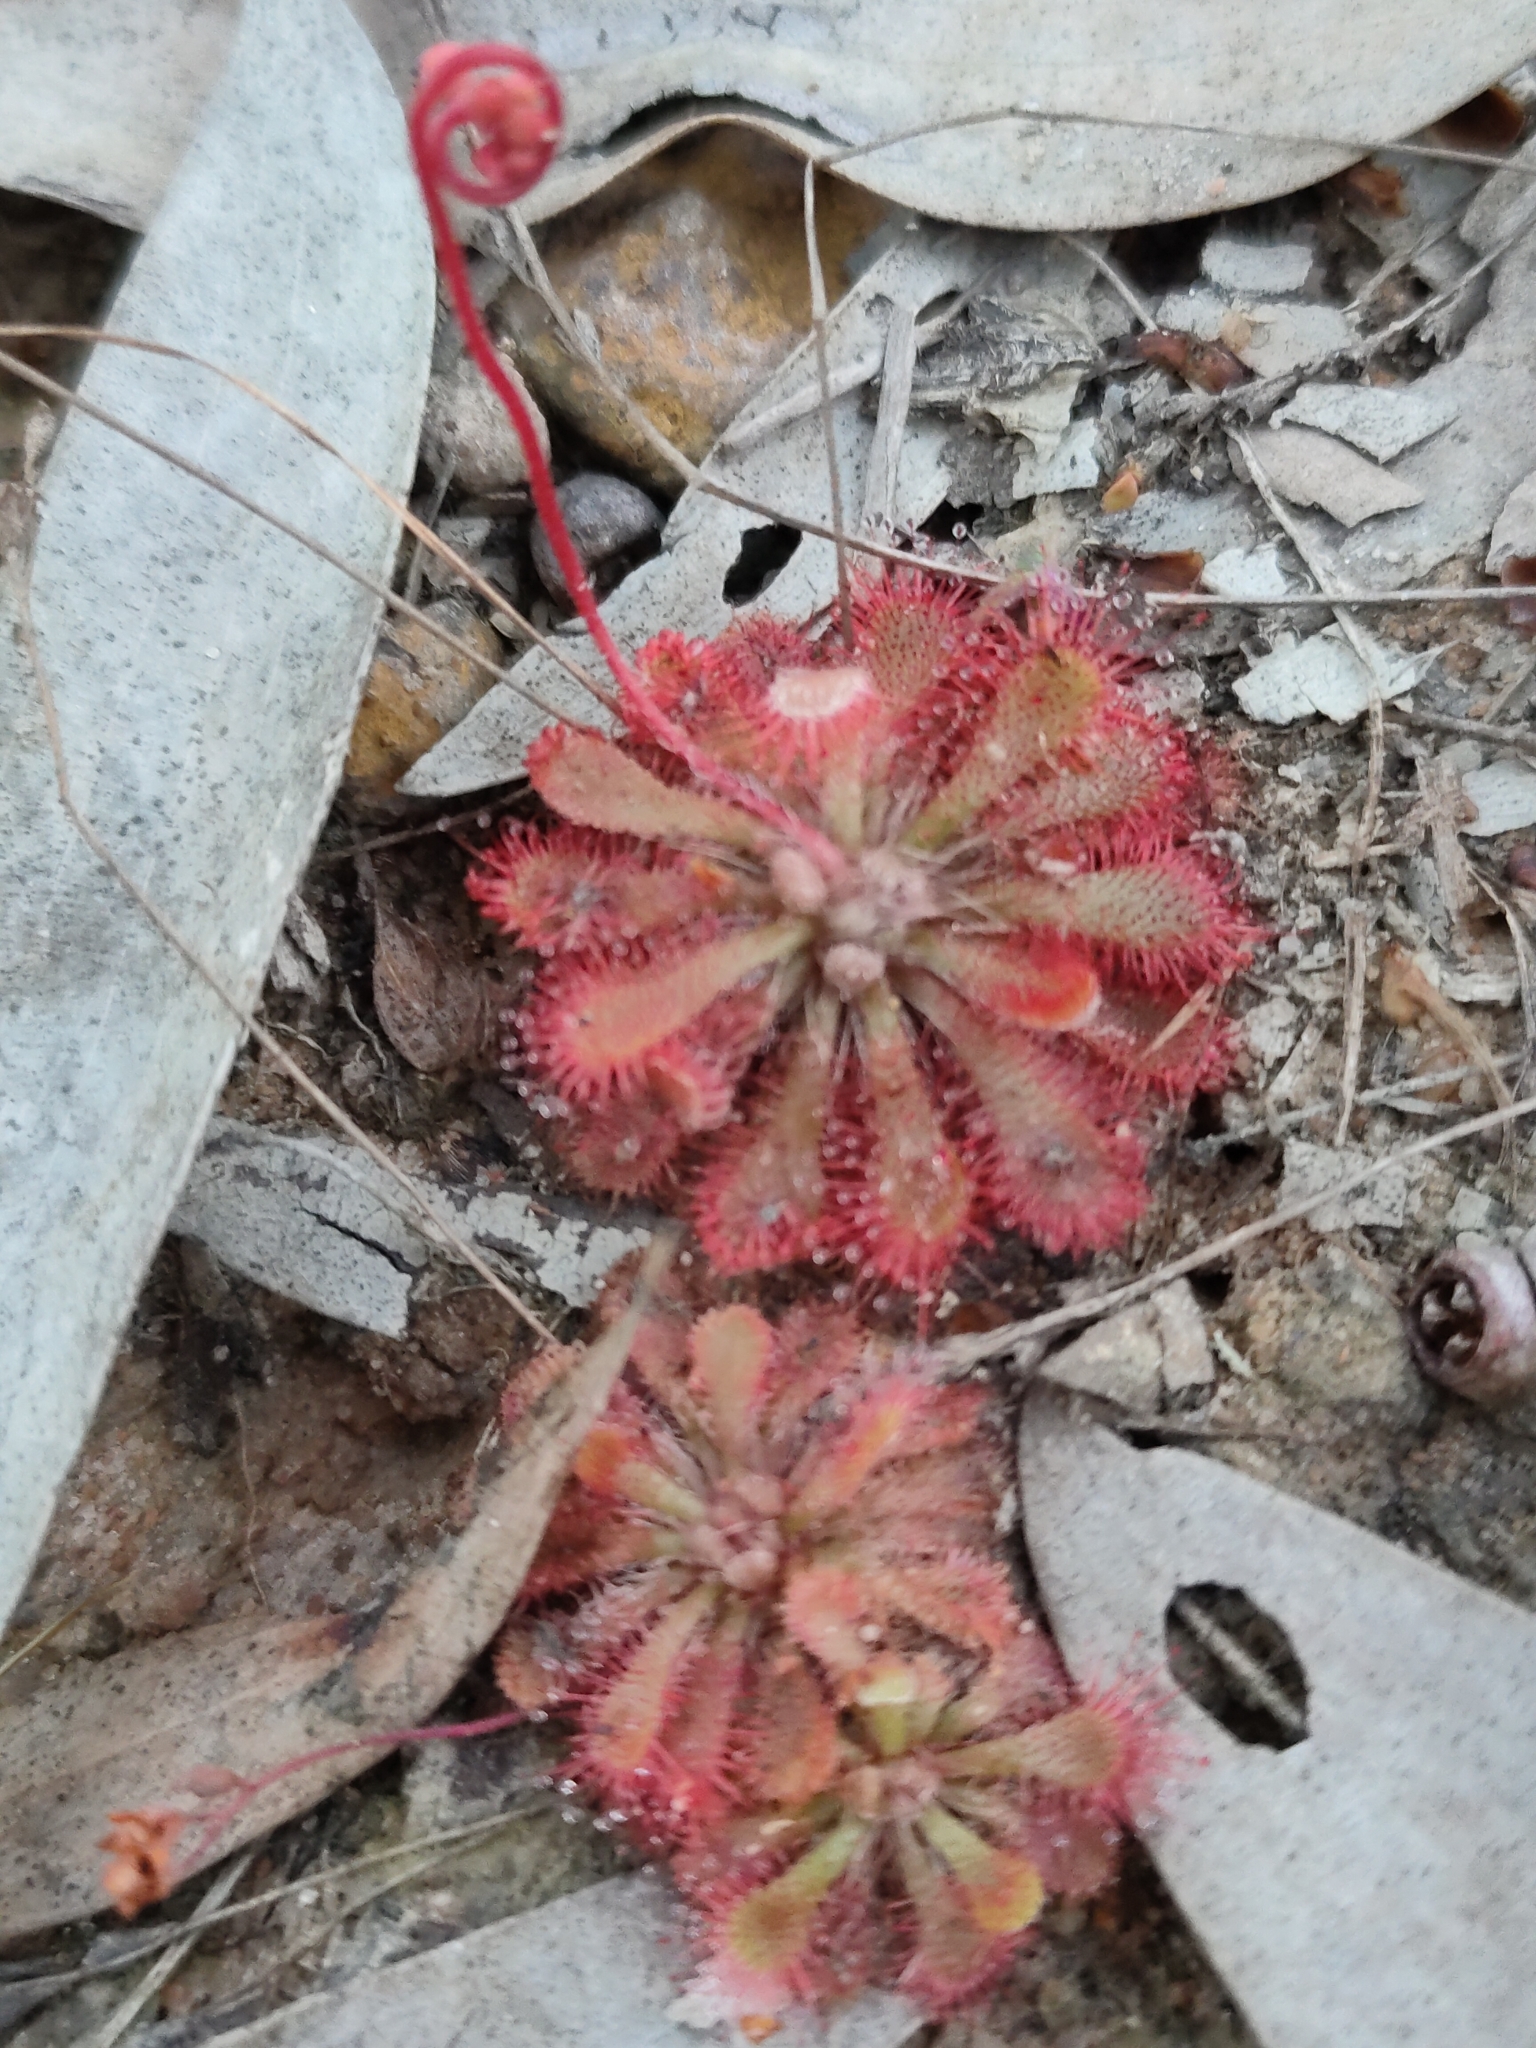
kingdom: Plantae
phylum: Tracheophyta
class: Magnoliopsida
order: Caryophyllales
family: Droseraceae
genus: Drosera
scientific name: Drosera spatulata
